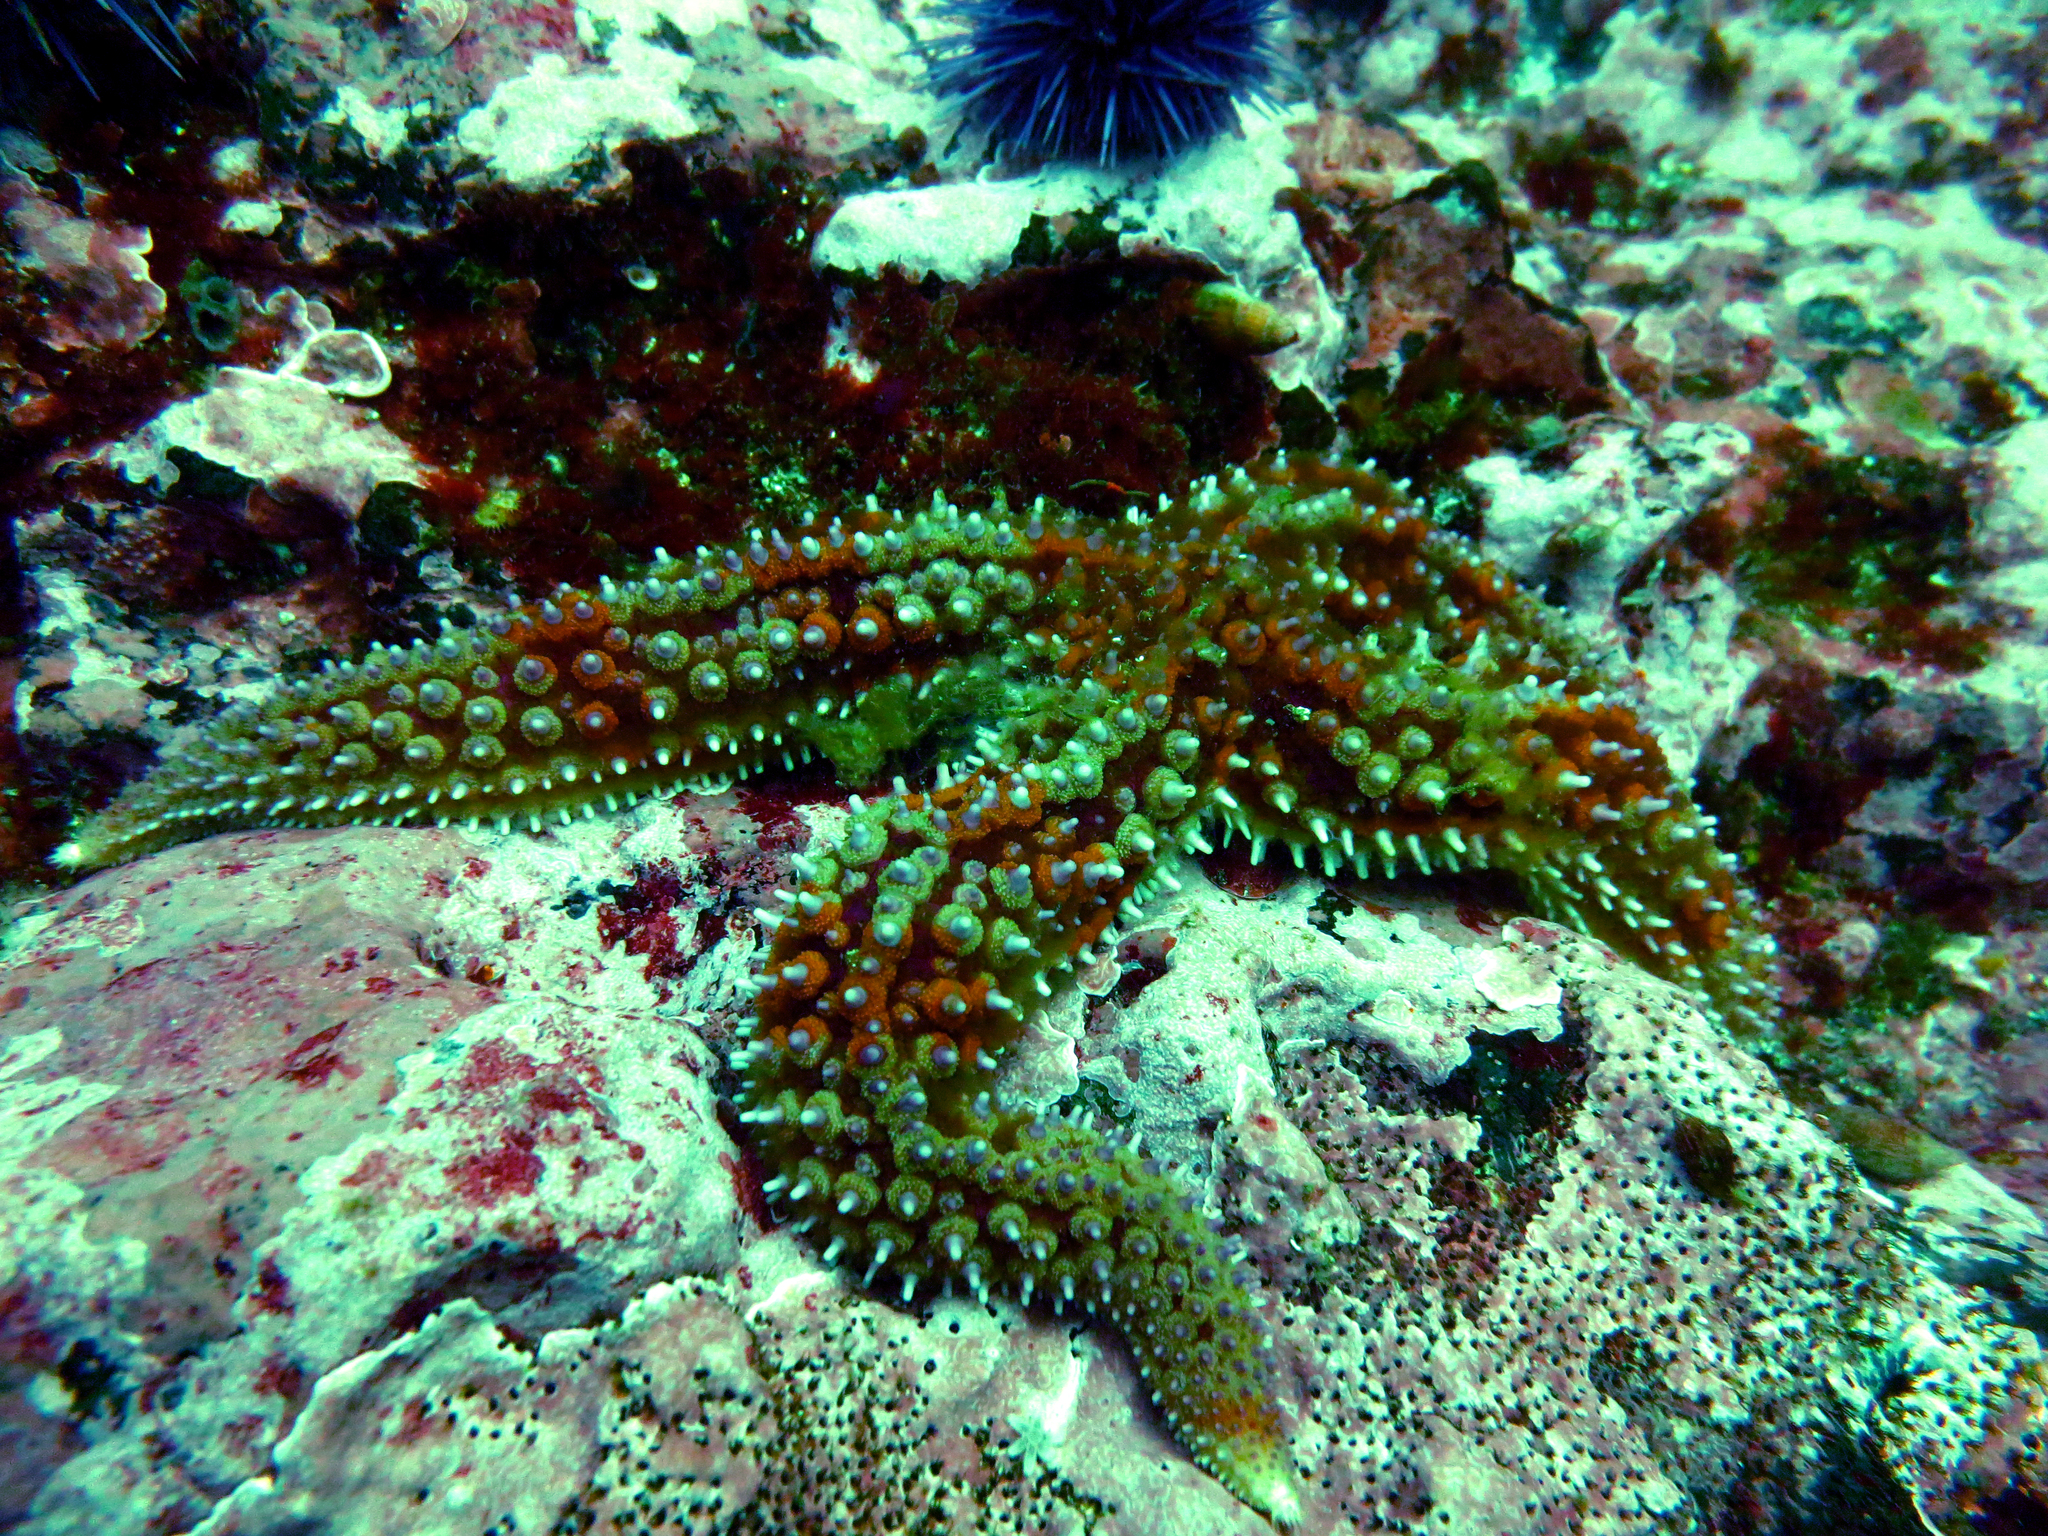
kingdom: Animalia
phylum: Echinodermata
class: Asteroidea
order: Forcipulatida
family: Asteriidae
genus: Orthasterias
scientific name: Orthasterias koehleri
